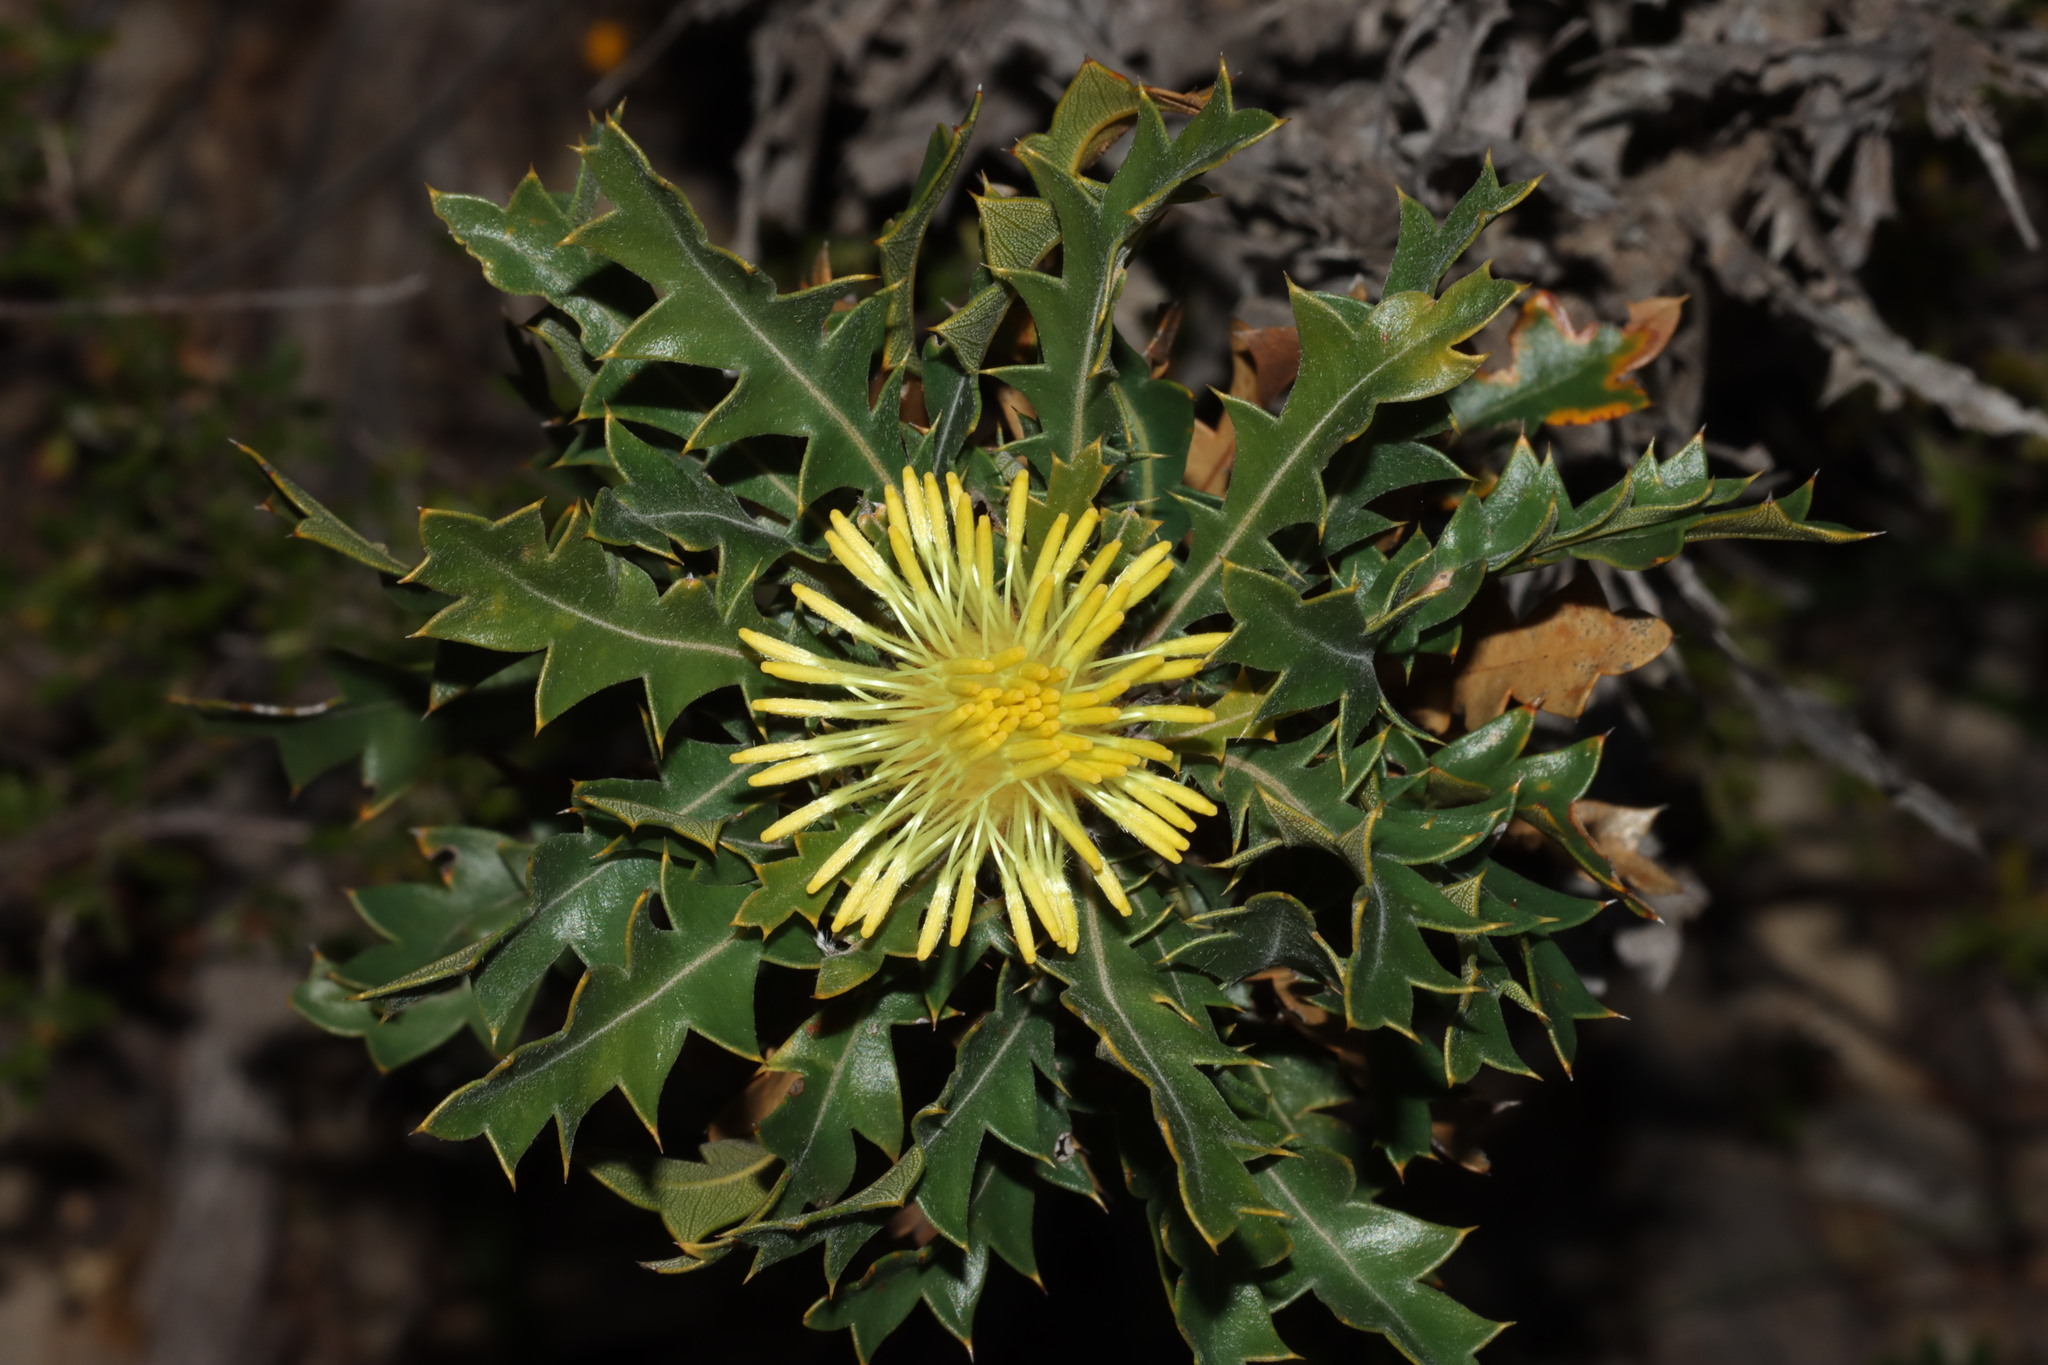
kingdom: Plantae
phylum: Tracheophyta
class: Magnoliopsida
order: Proteales
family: Proteaceae
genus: Banksia
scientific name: Banksia armata
